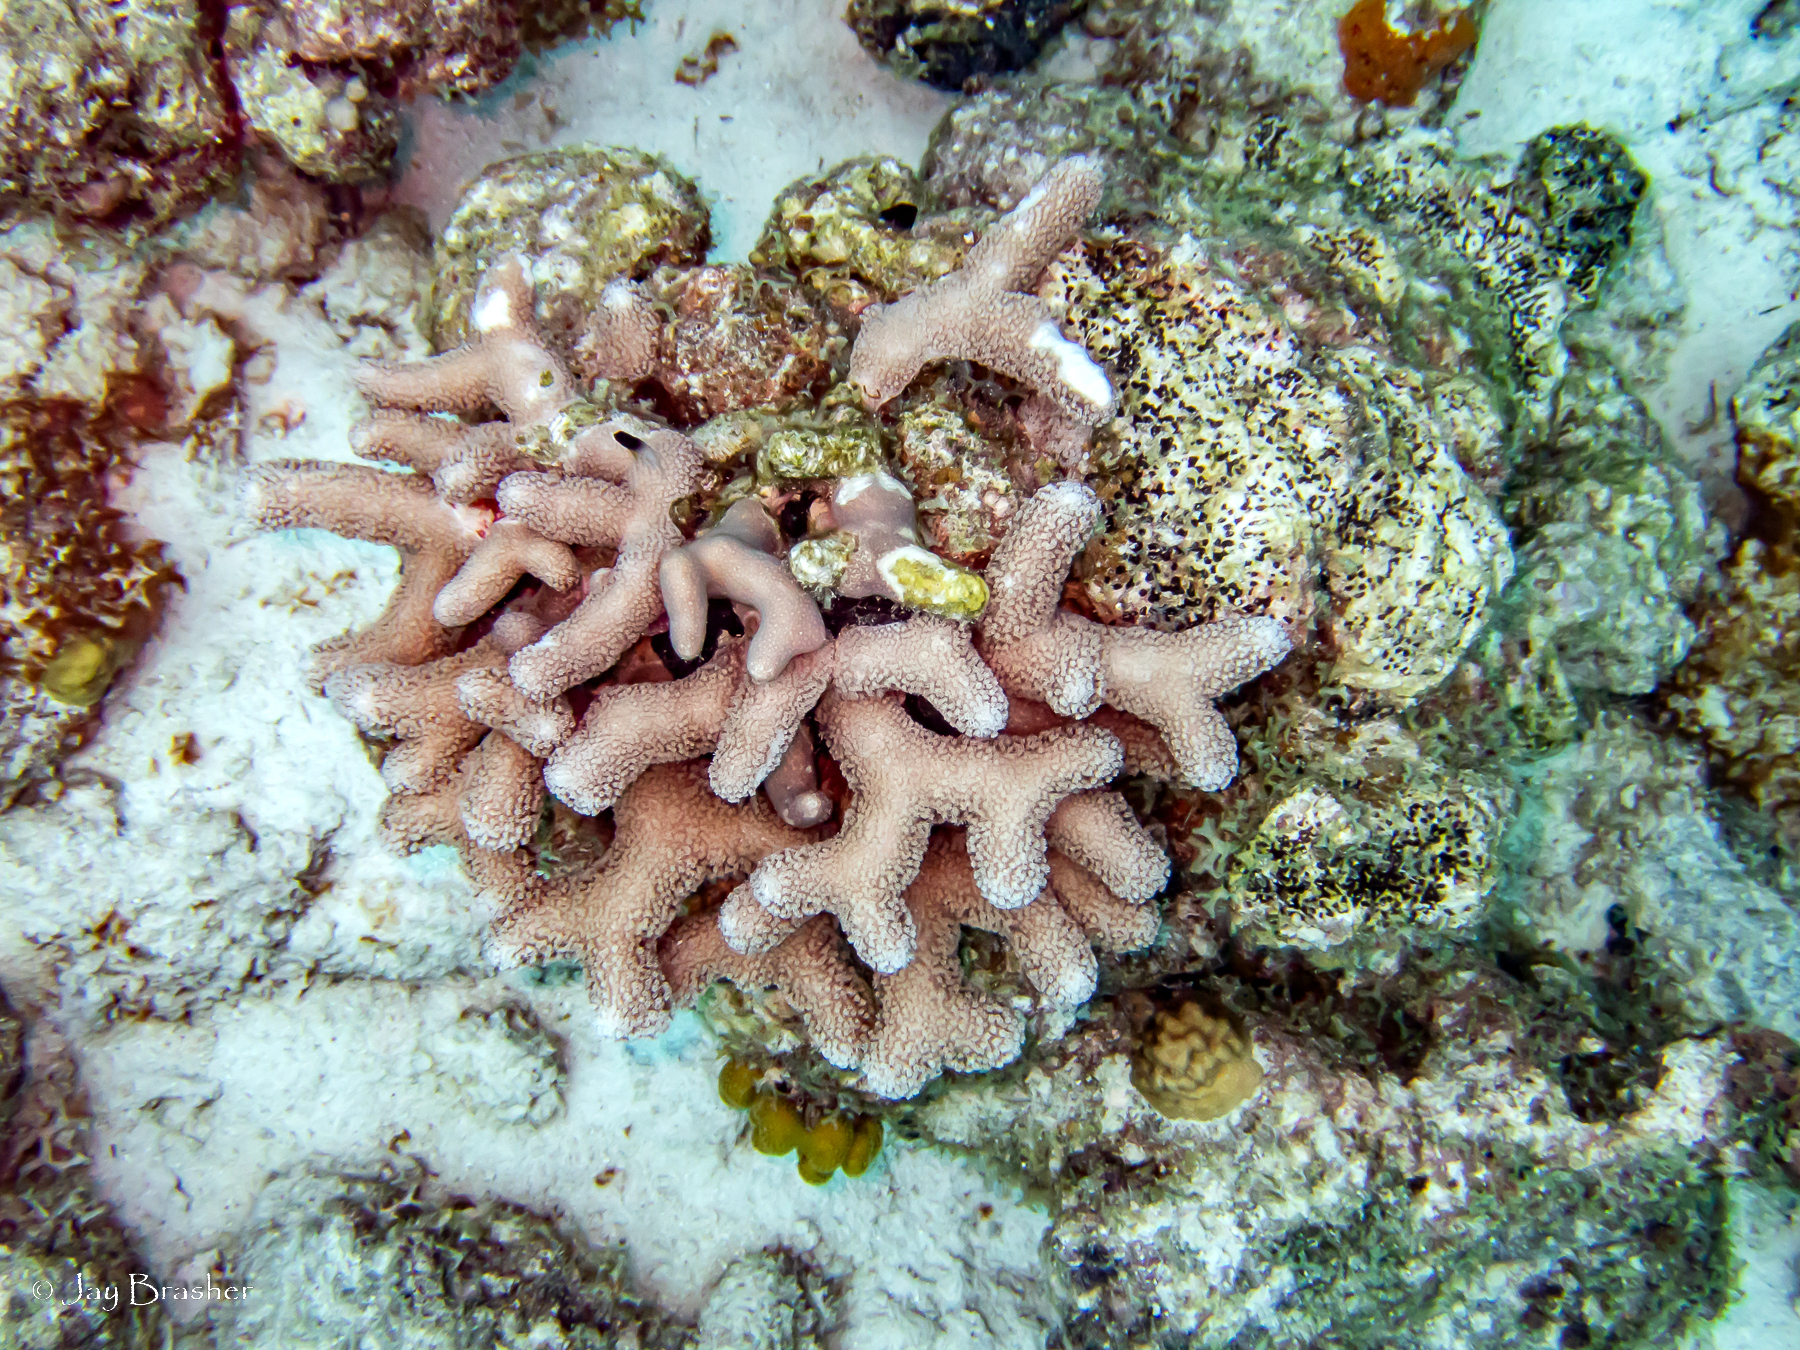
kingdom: Animalia
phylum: Cnidaria
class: Anthozoa
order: Scleractinia
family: Poritidae
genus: Porites
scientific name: Porites porites
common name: Finger coral
